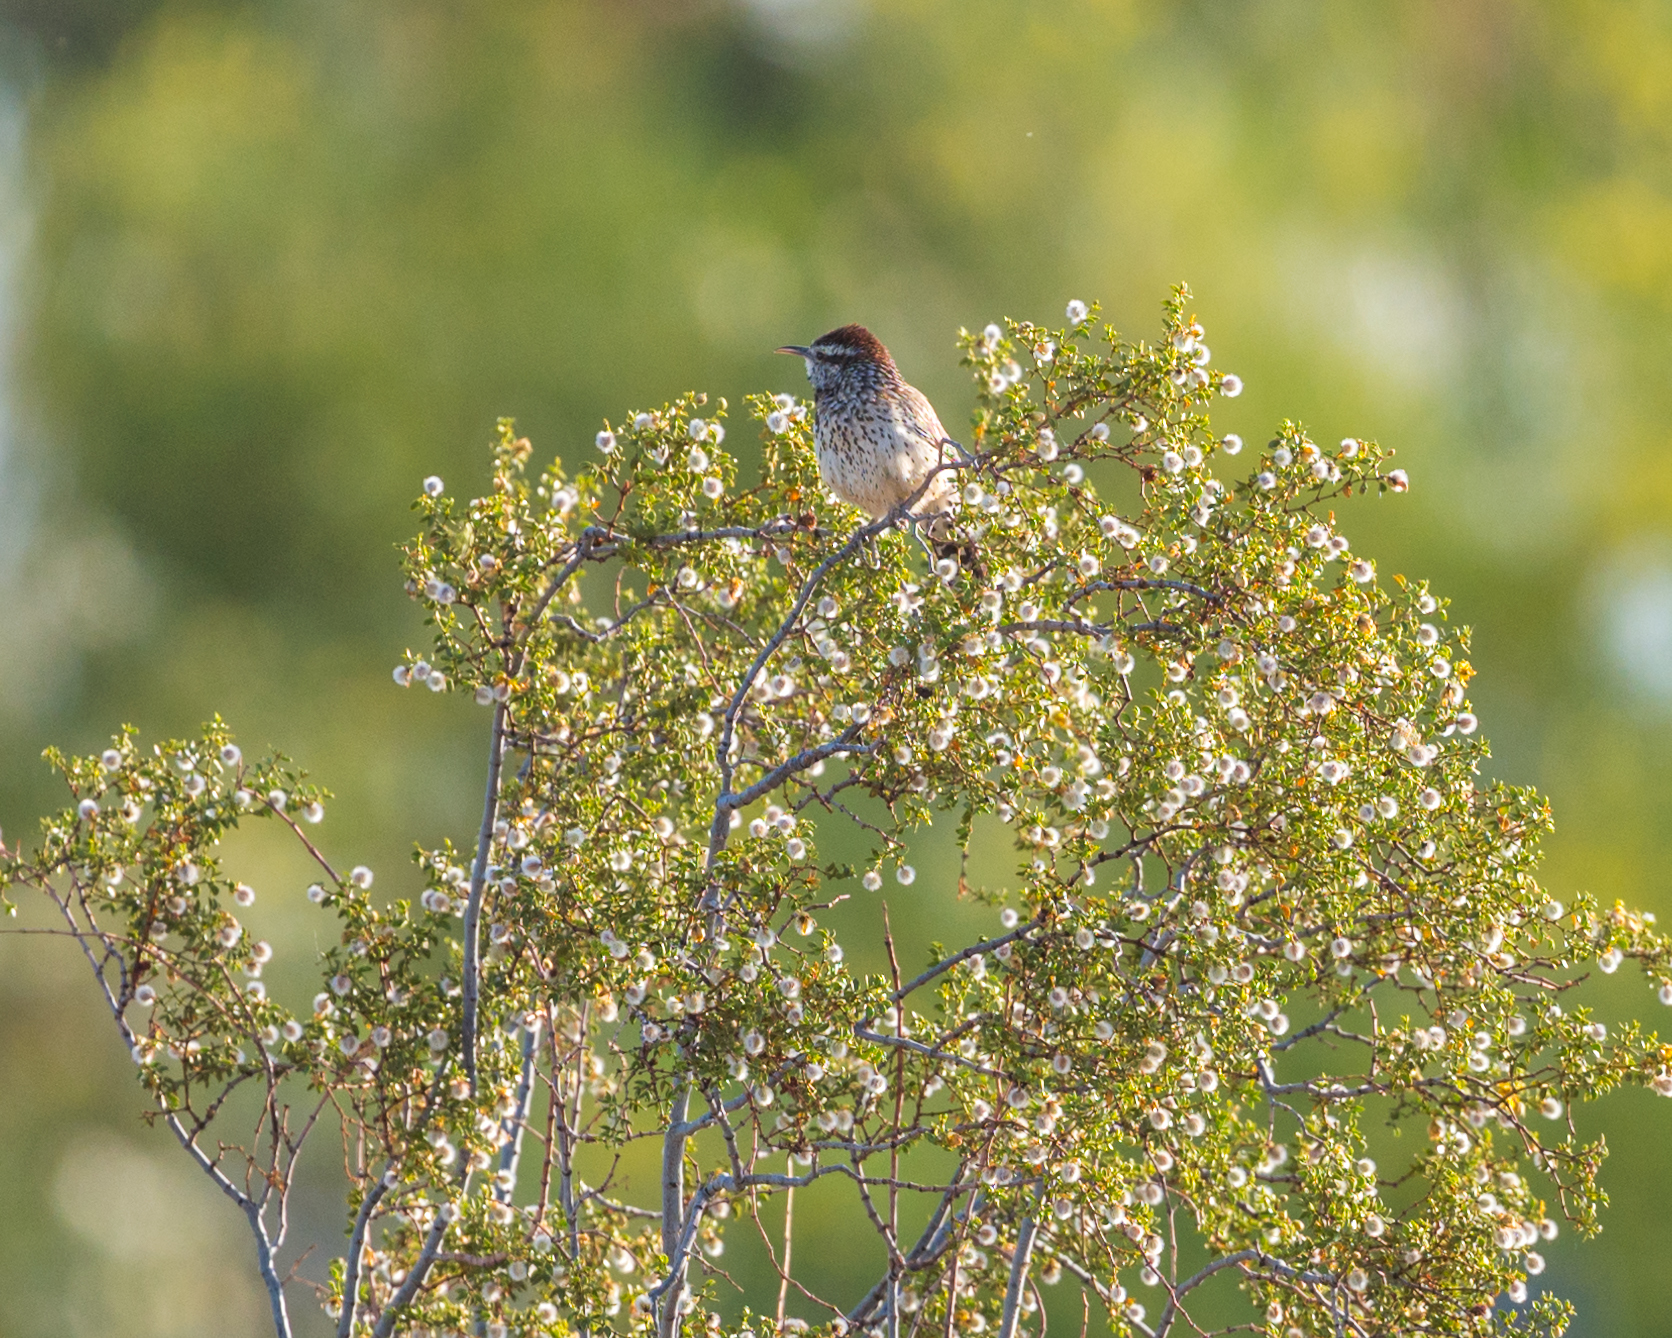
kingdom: Animalia
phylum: Chordata
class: Aves
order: Passeriformes
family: Troglodytidae
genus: Campylorhynchus
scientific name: Campylorhynchus brunneicapillus
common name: Cactus wren
